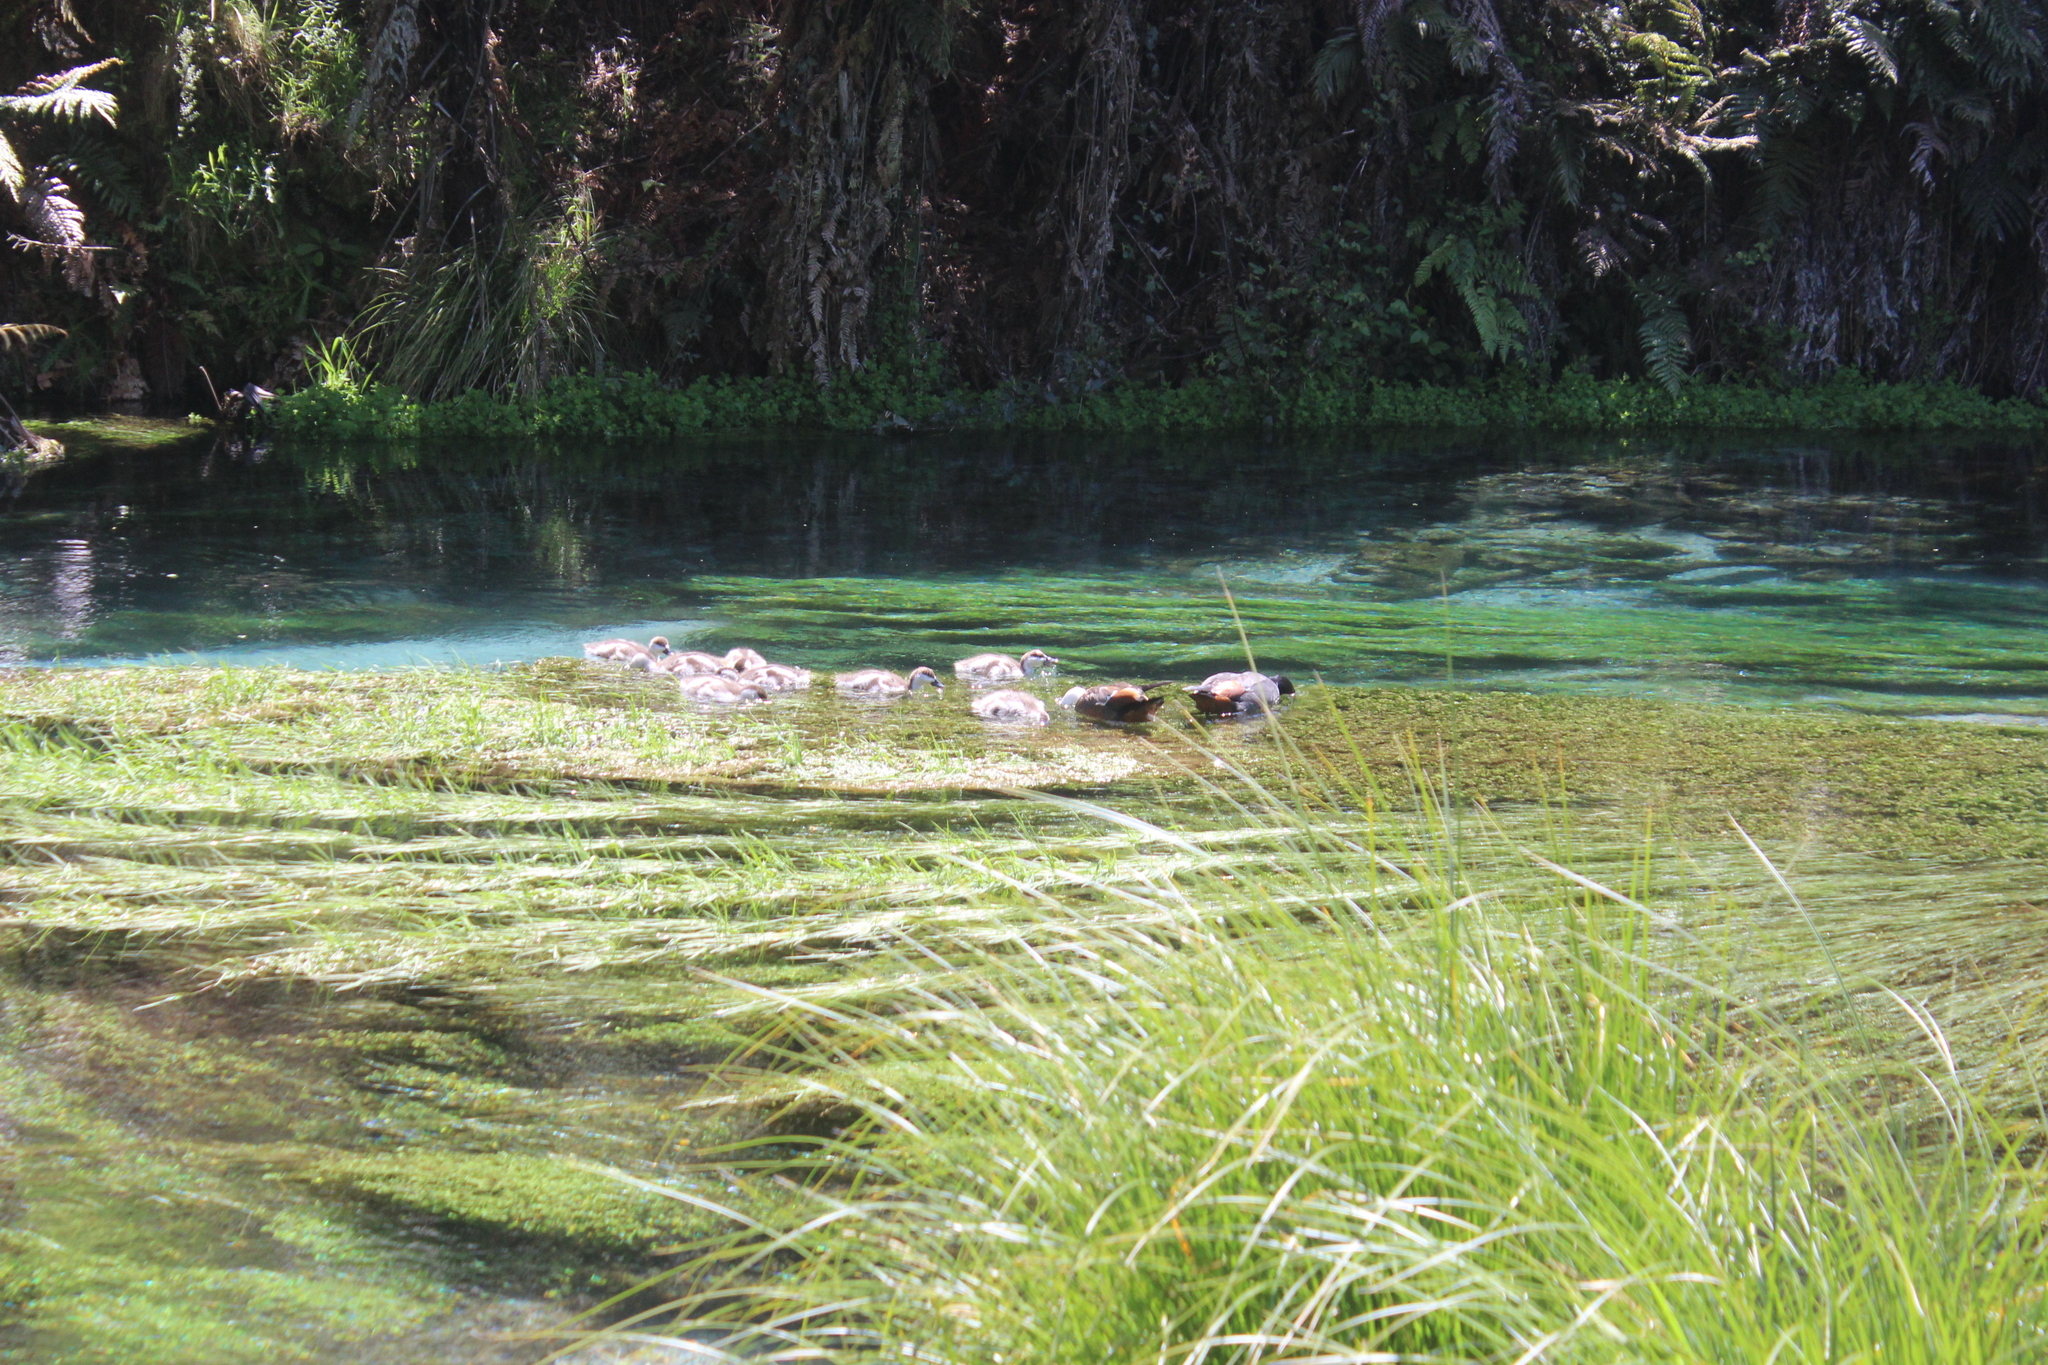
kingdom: Animalia
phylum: Chordata
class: Aves
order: Anseriformes
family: Anatidae
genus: Tadorna
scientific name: Tadorna variegata
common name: Paradise shelduck
